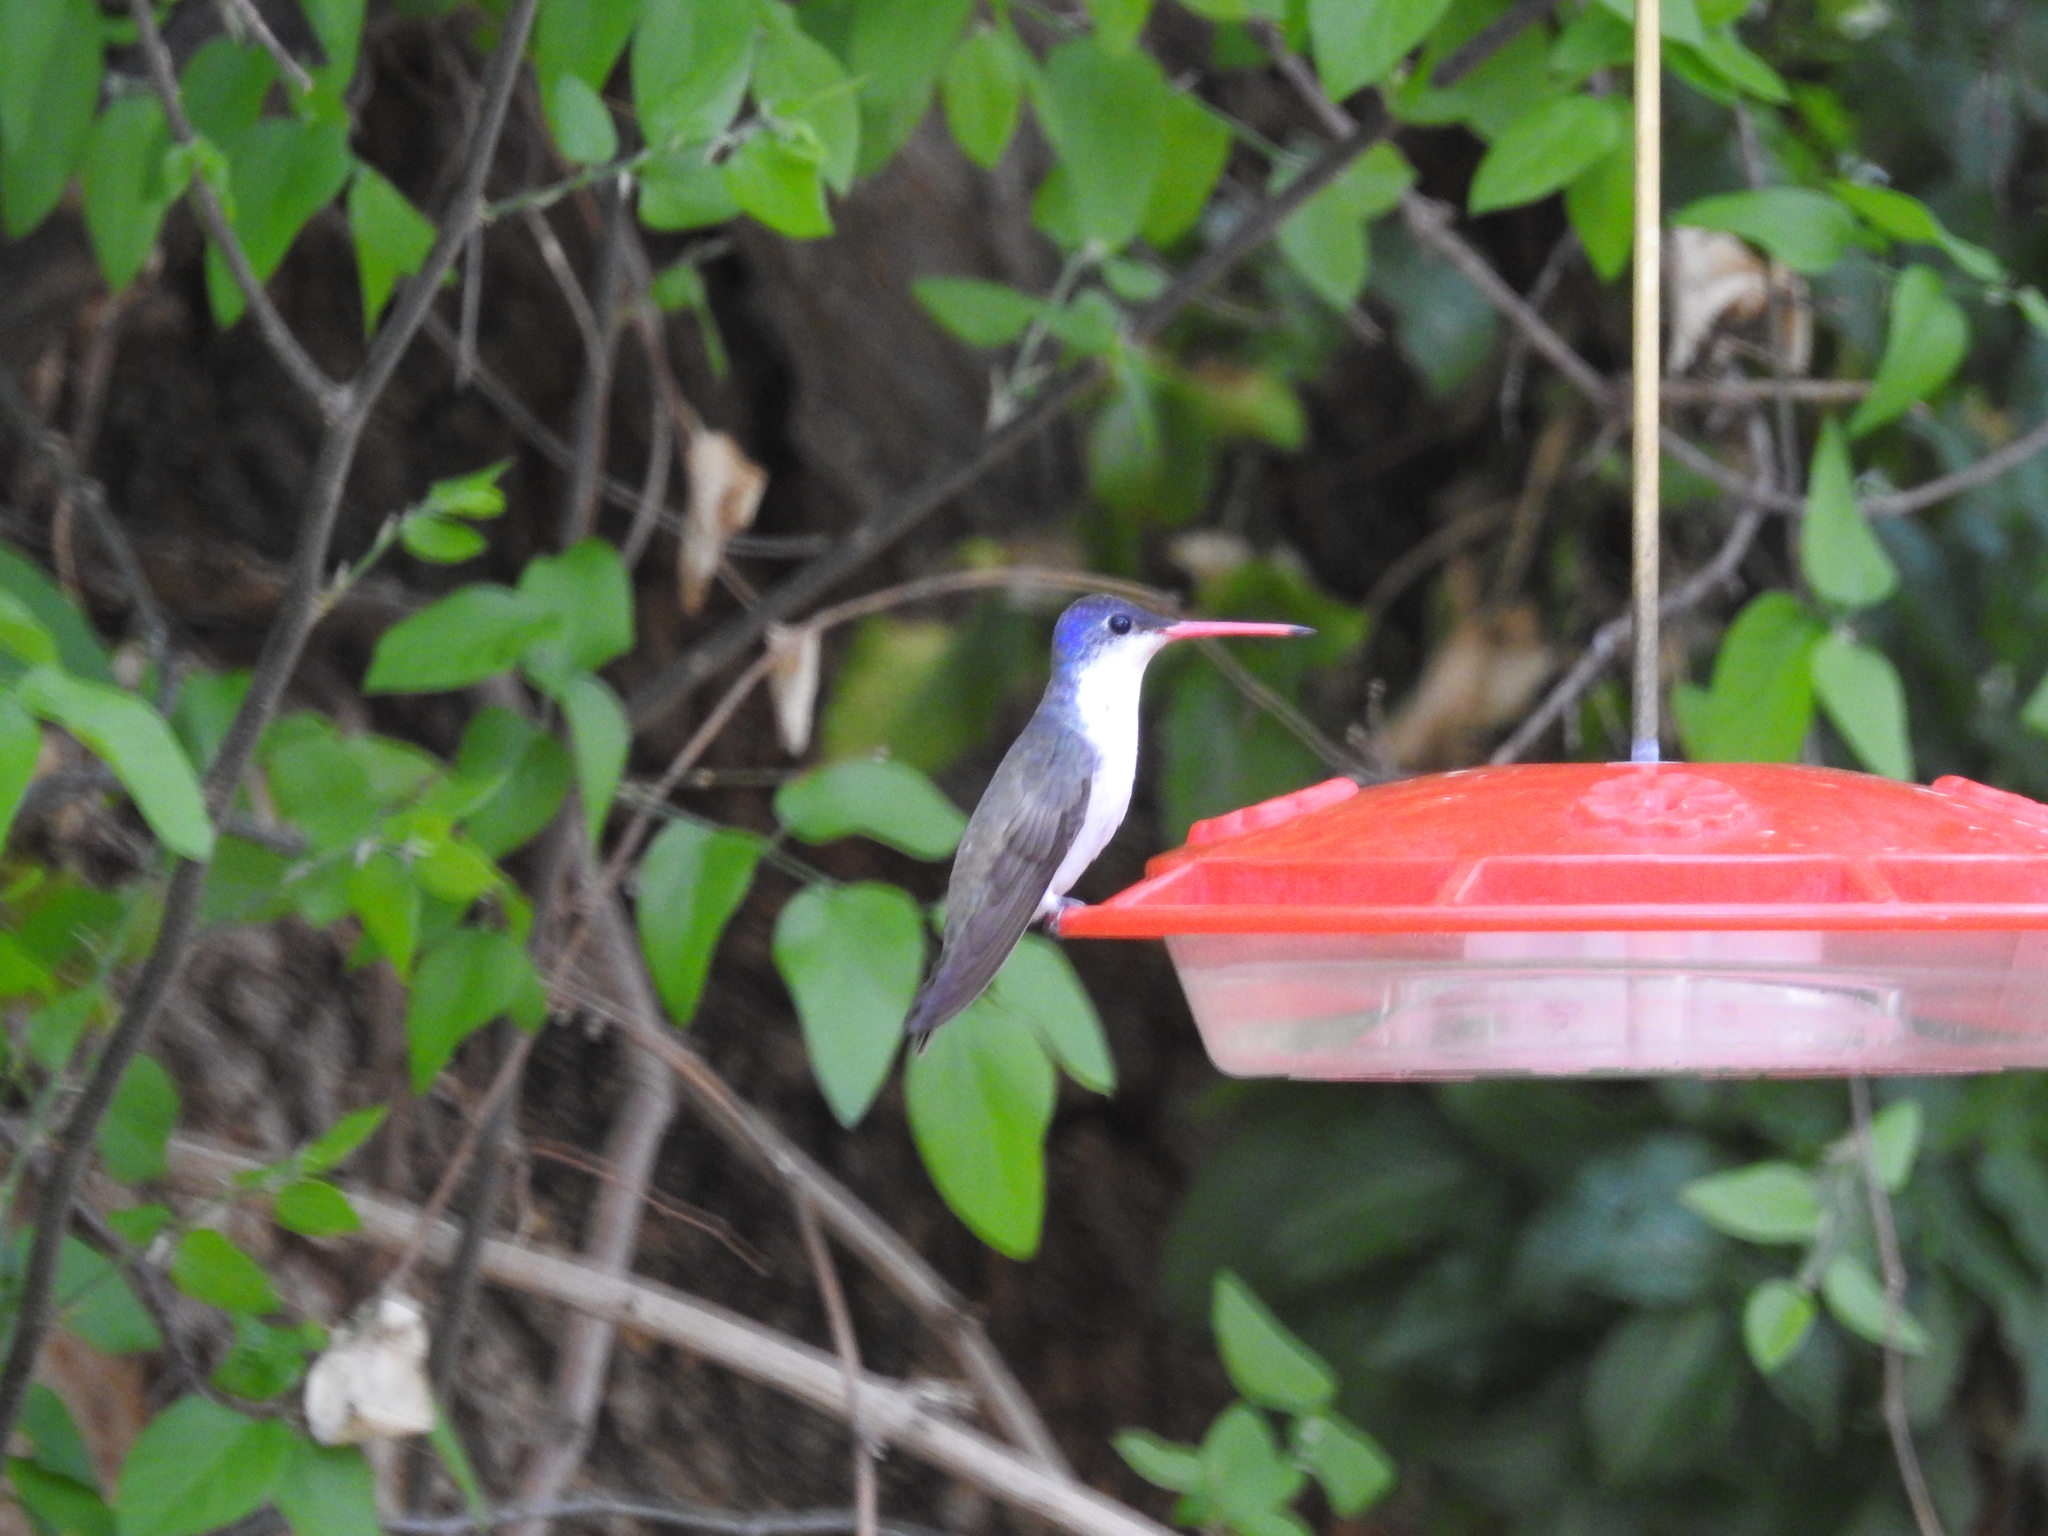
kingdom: Animalia
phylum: Chordata
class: Aves
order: Apodiformes
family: Trochilidae
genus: Leucolia
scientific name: Leucolia violiceps
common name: Violet-crowned hummingbird
